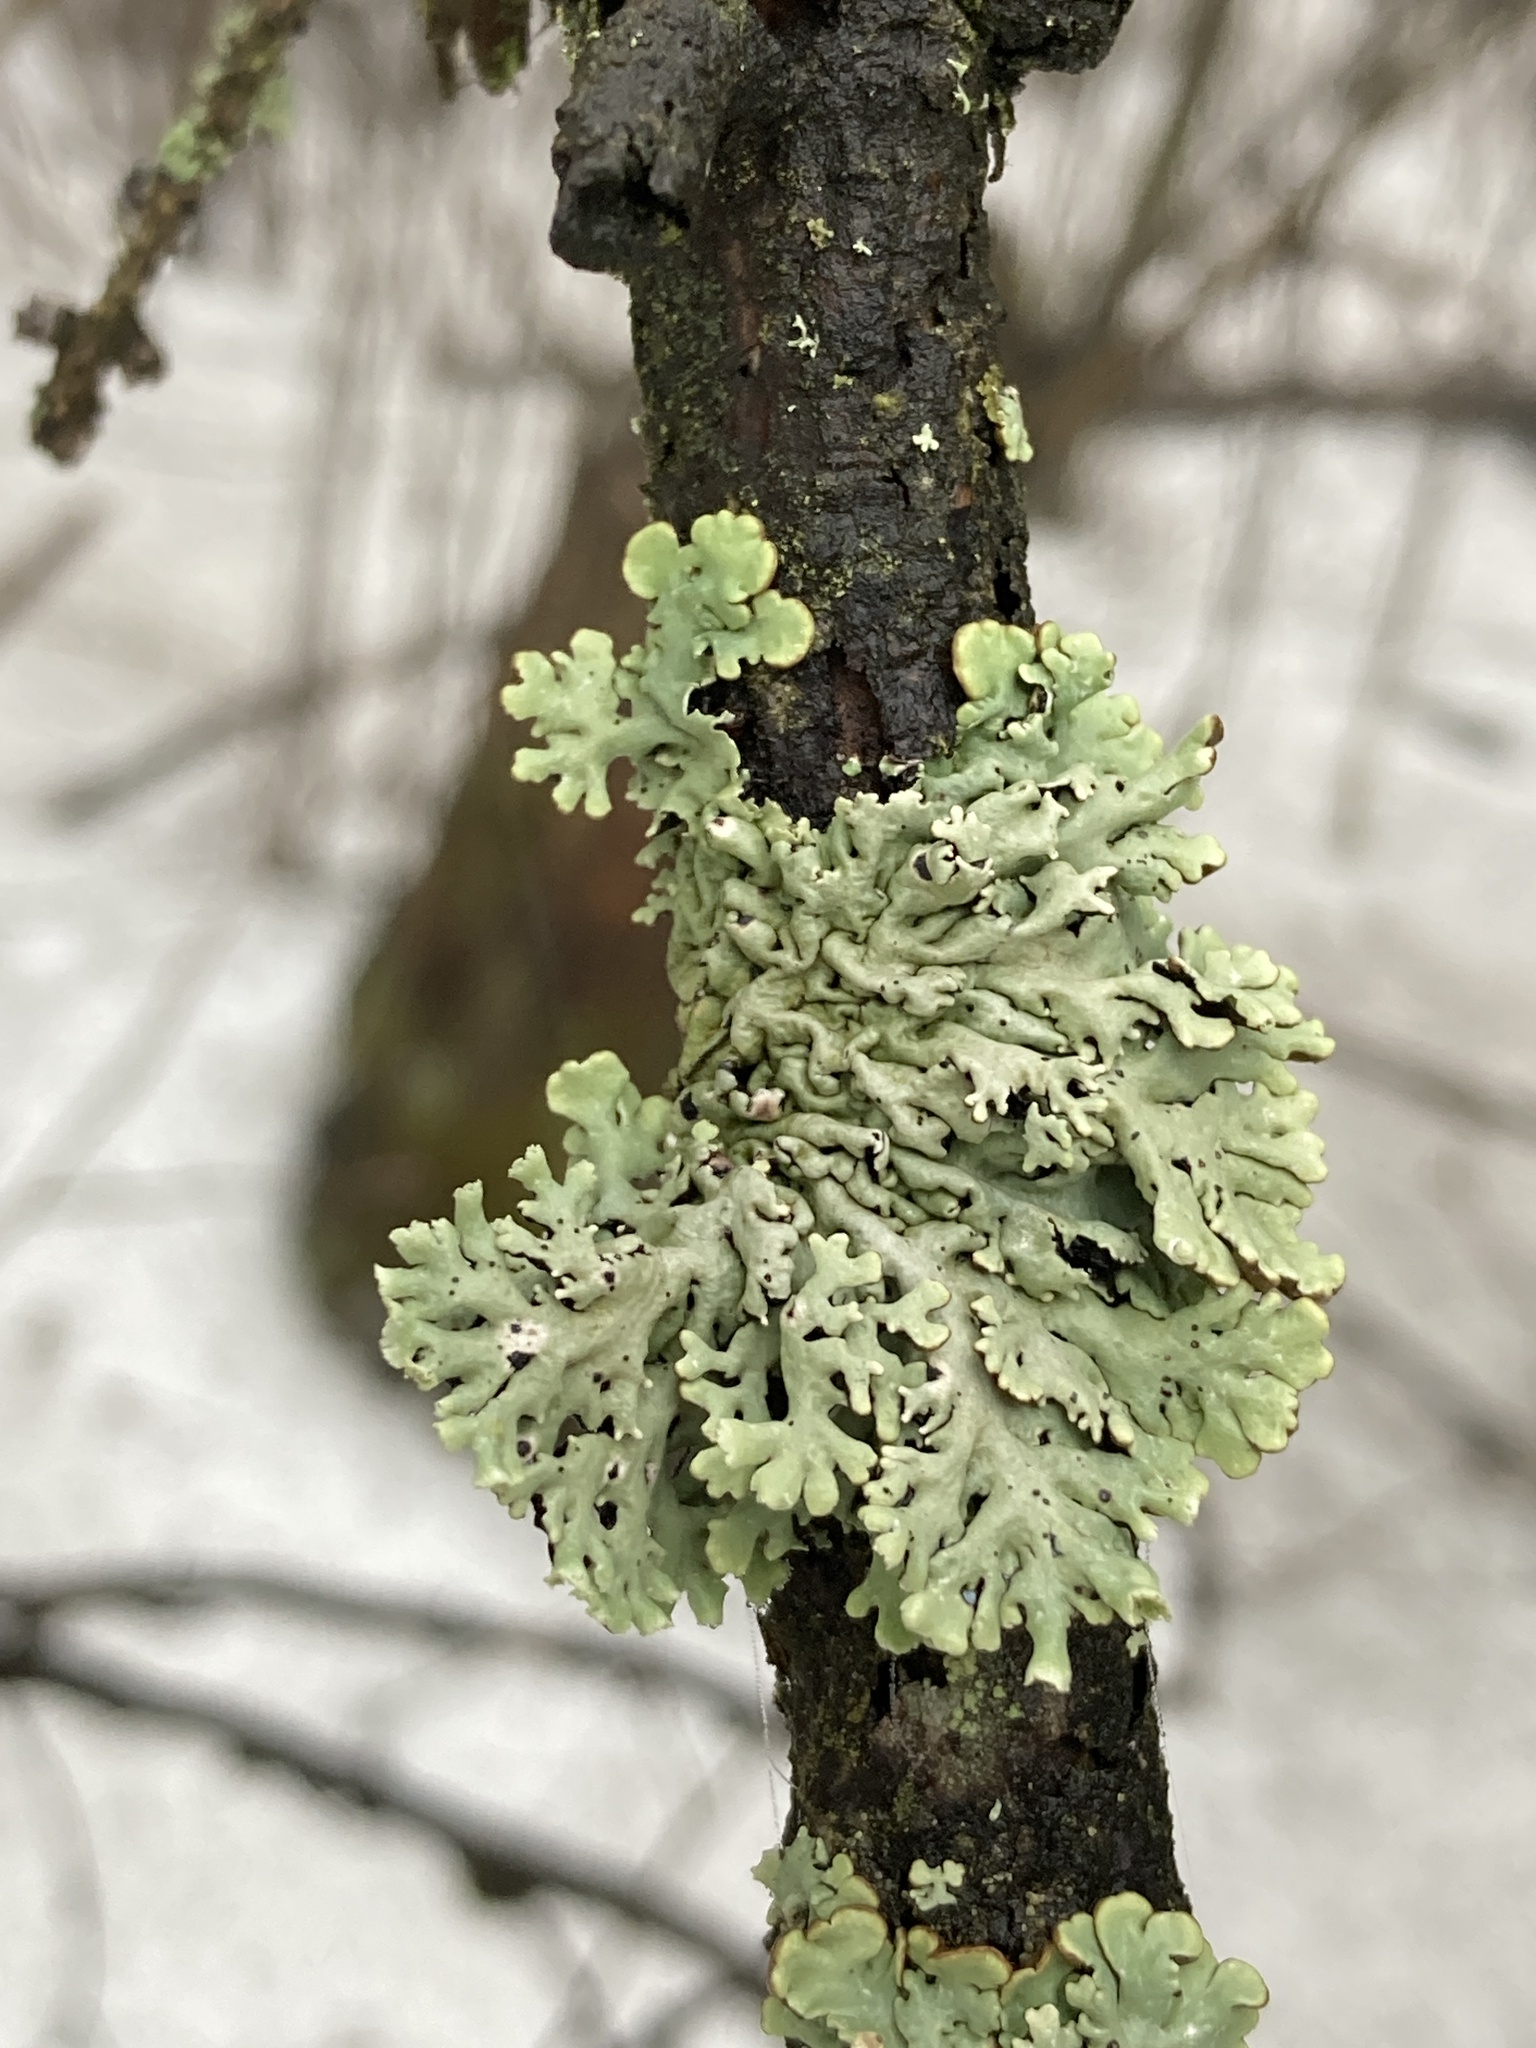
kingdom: Fungi
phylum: Ascomycota
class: Lecanoromycetes
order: Lecanorales
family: Parmeliaceae
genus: Hypogymnia
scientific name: Hypogymnia physodes
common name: Dark crottle
